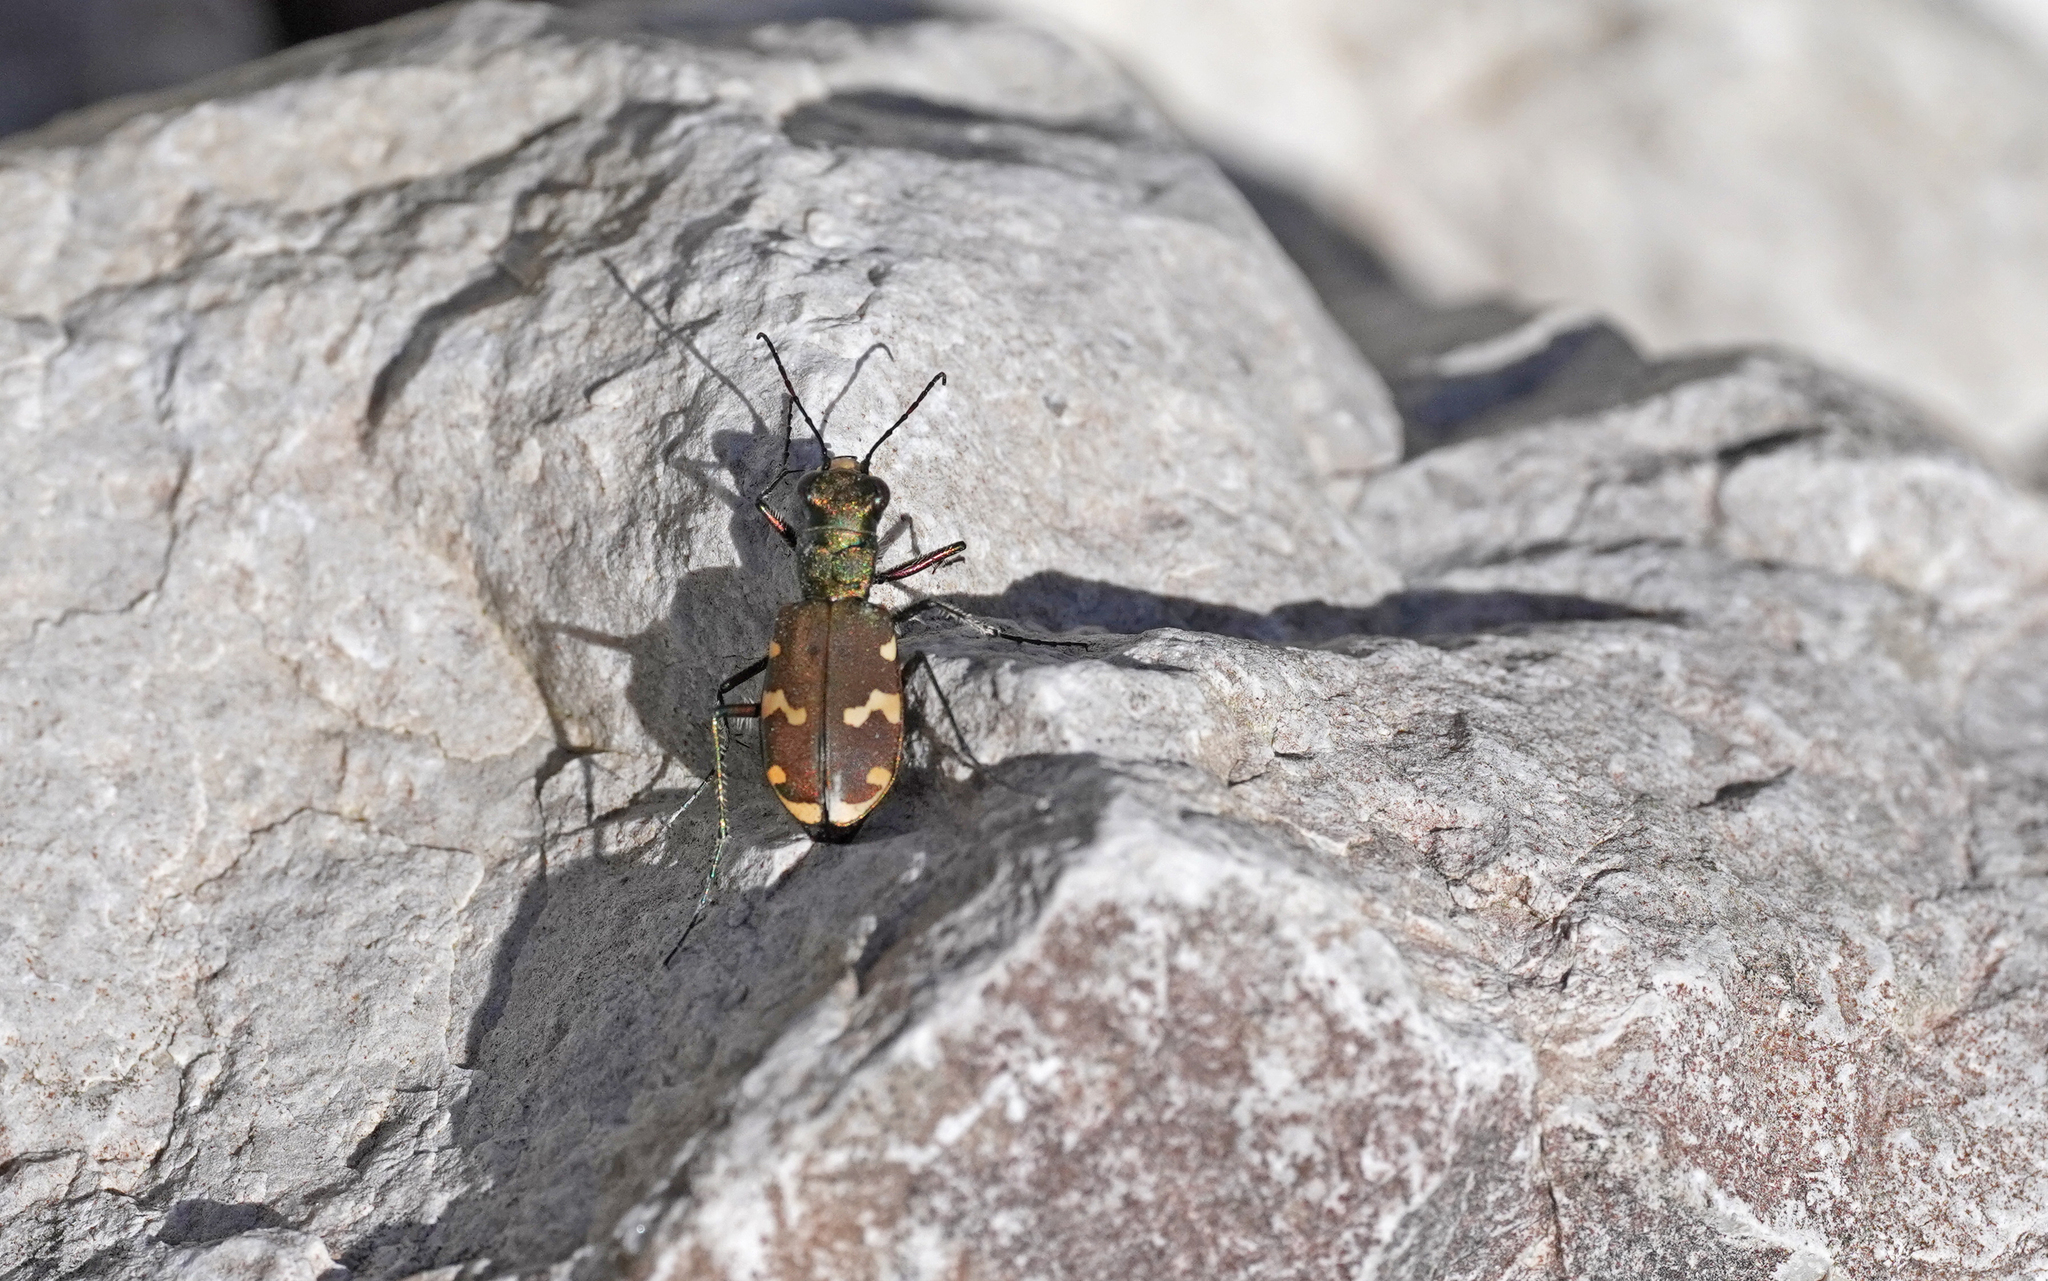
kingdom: Animalia
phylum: Arthropoda
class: Insecta
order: Coleoptera
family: Carabidae
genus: Cicindela
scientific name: Cicindela sylvicola
